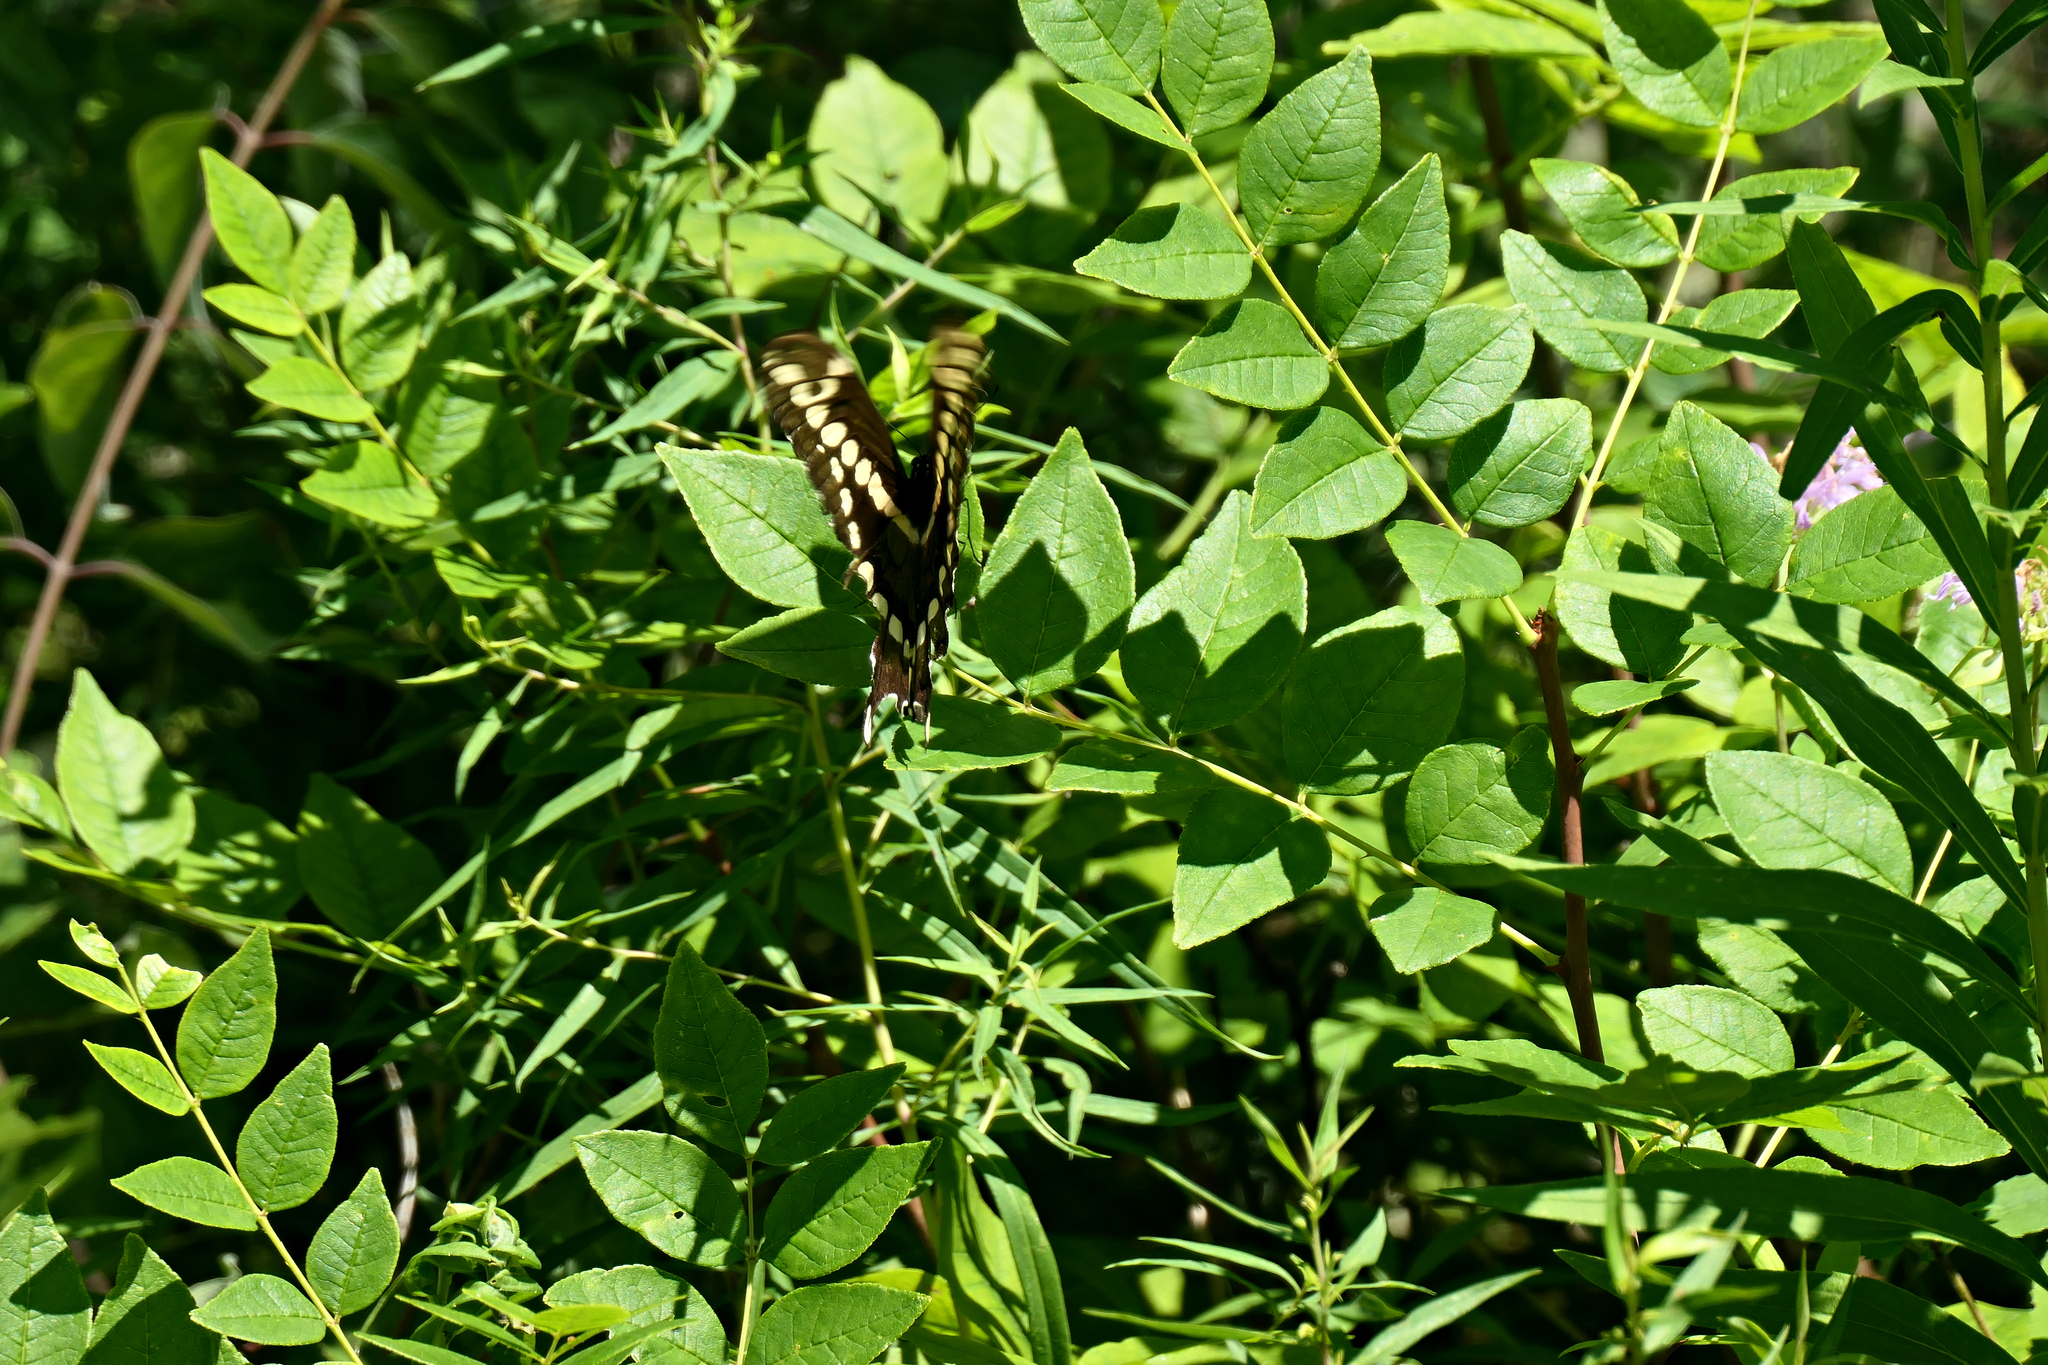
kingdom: Plantae
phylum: Tracheophyta
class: Magnoliopsida
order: Sapindales
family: Rutaceae
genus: Zanthoxylum
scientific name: Zanthoxylum americanum
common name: Northern prickly-ash
